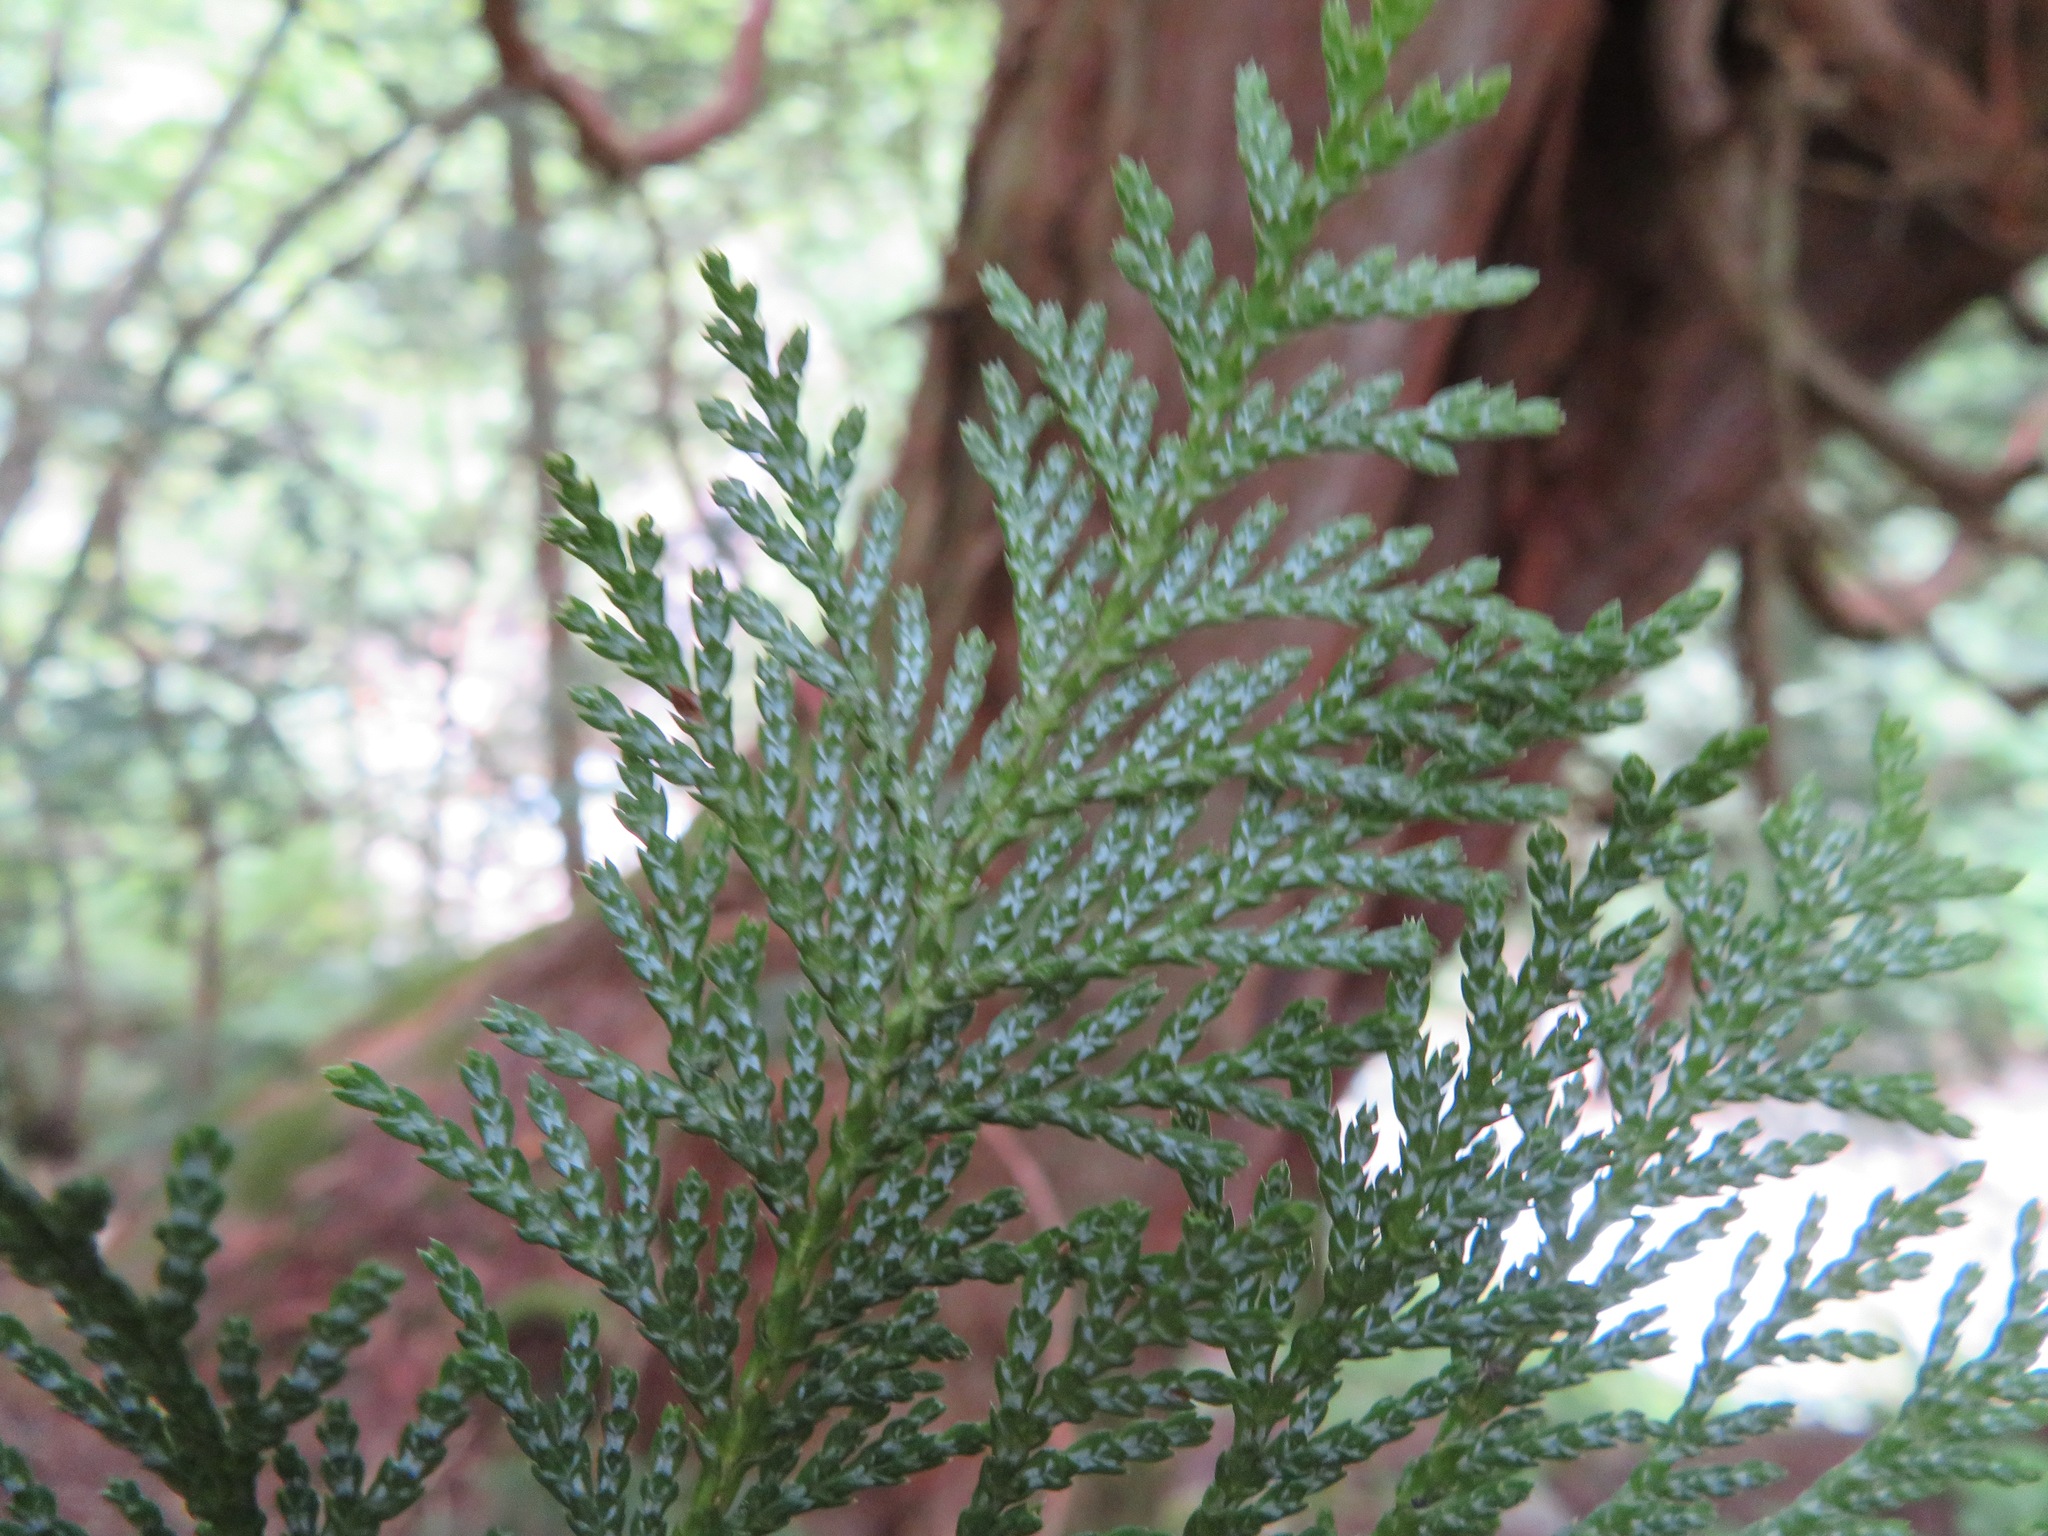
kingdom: Plantae
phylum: Tracheophyta
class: Pinopsida
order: Pinales
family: Cupressaceae
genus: Chamaecyparis
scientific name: Chamaecyparis pisifera
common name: Sawara cypress
